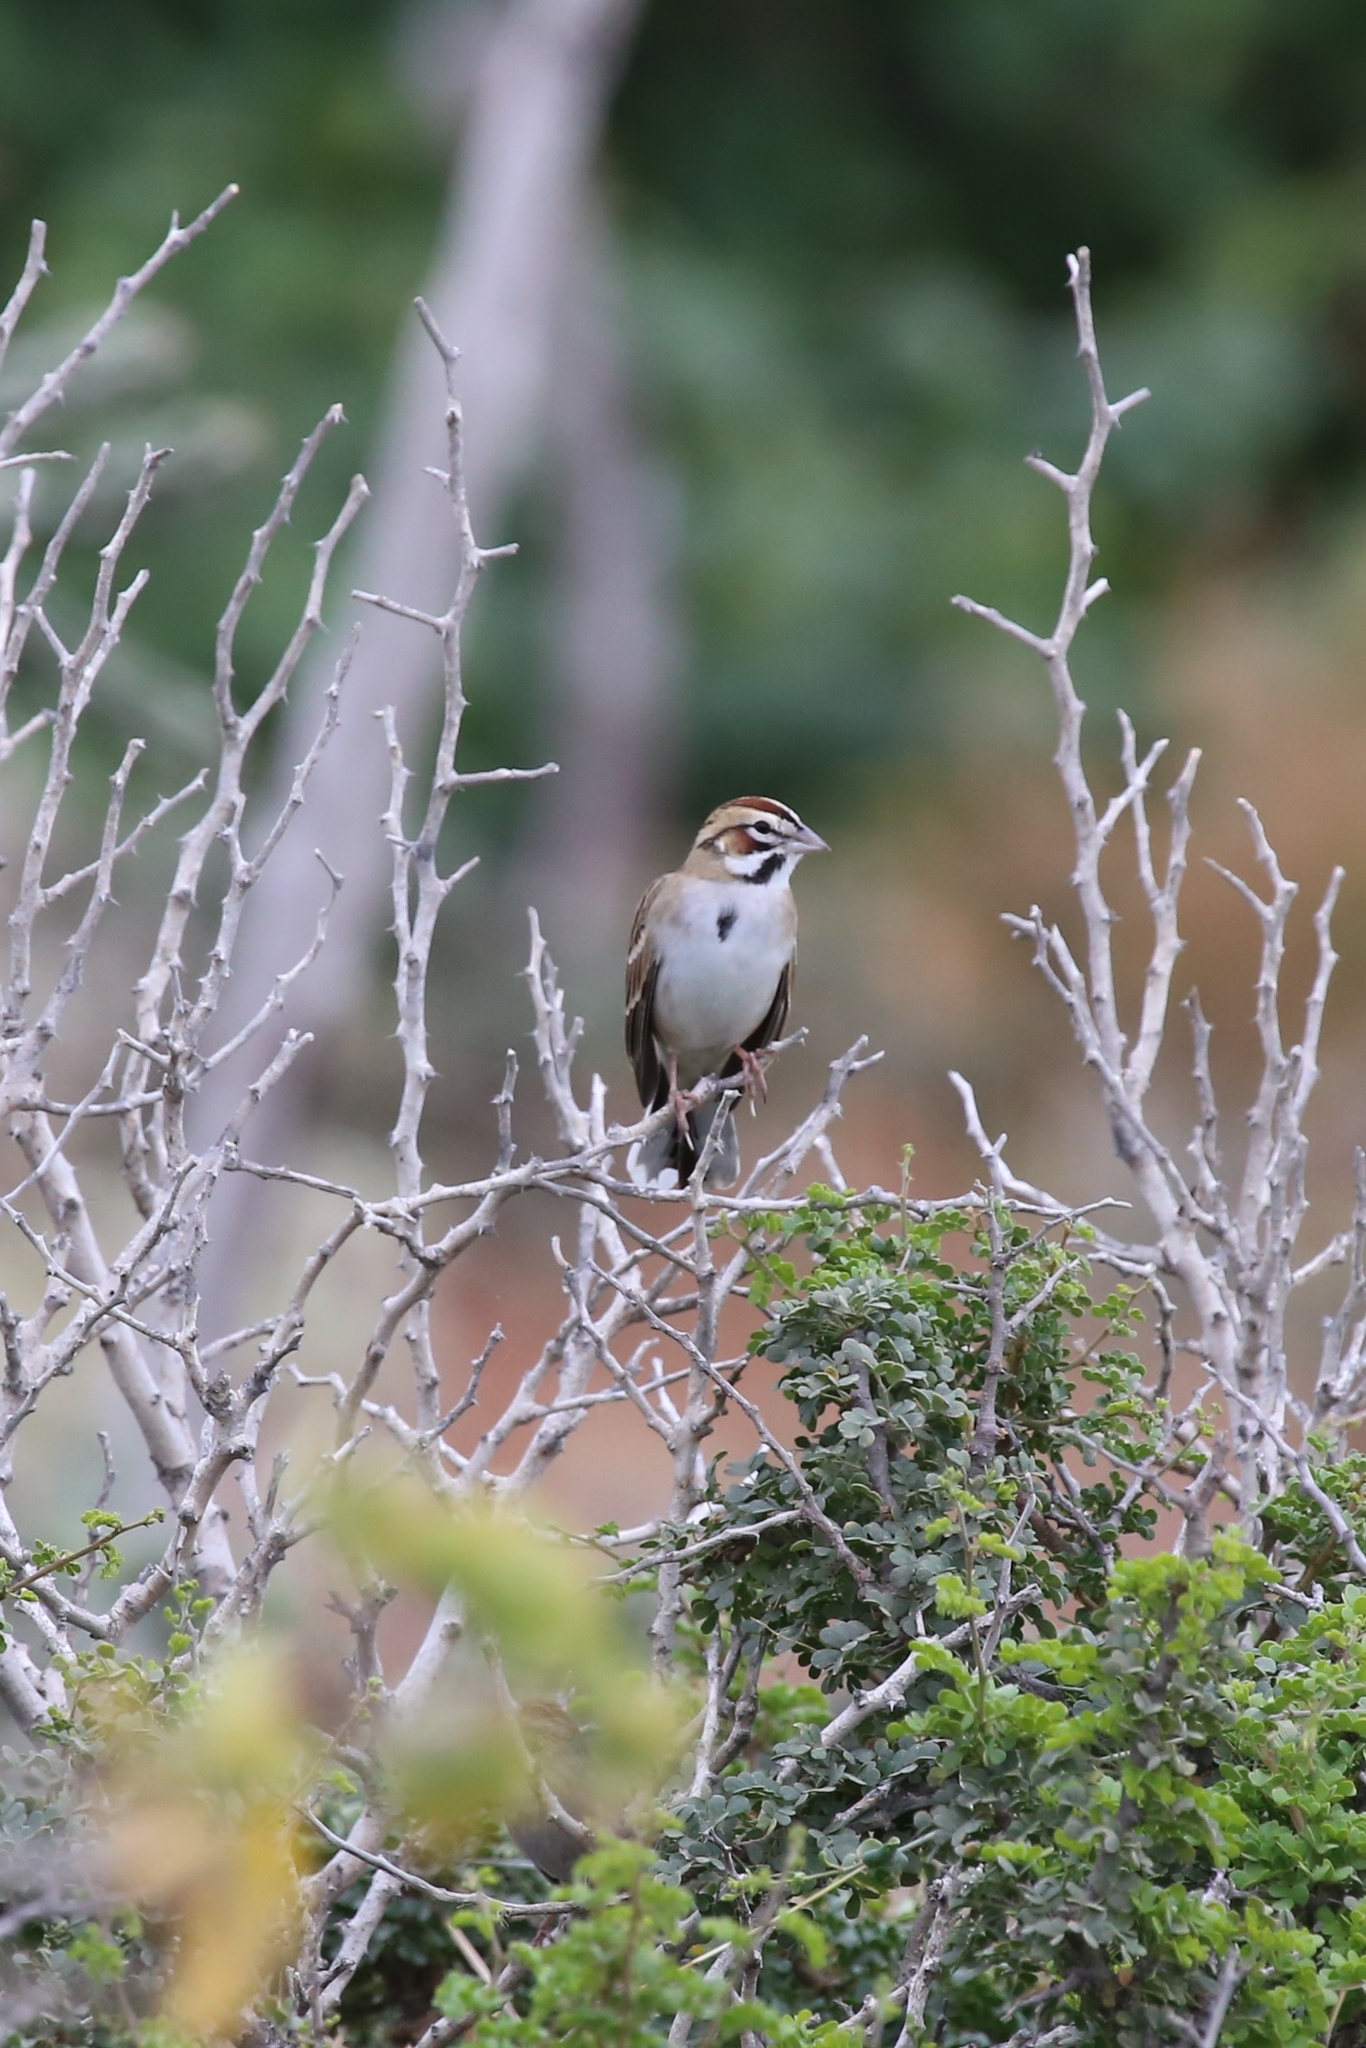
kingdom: Animalia
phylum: Chordata
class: Aves
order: Passeriformes
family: Passerellidae
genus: Chondestes
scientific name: Chondestes grammacus
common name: Lark sparrow
